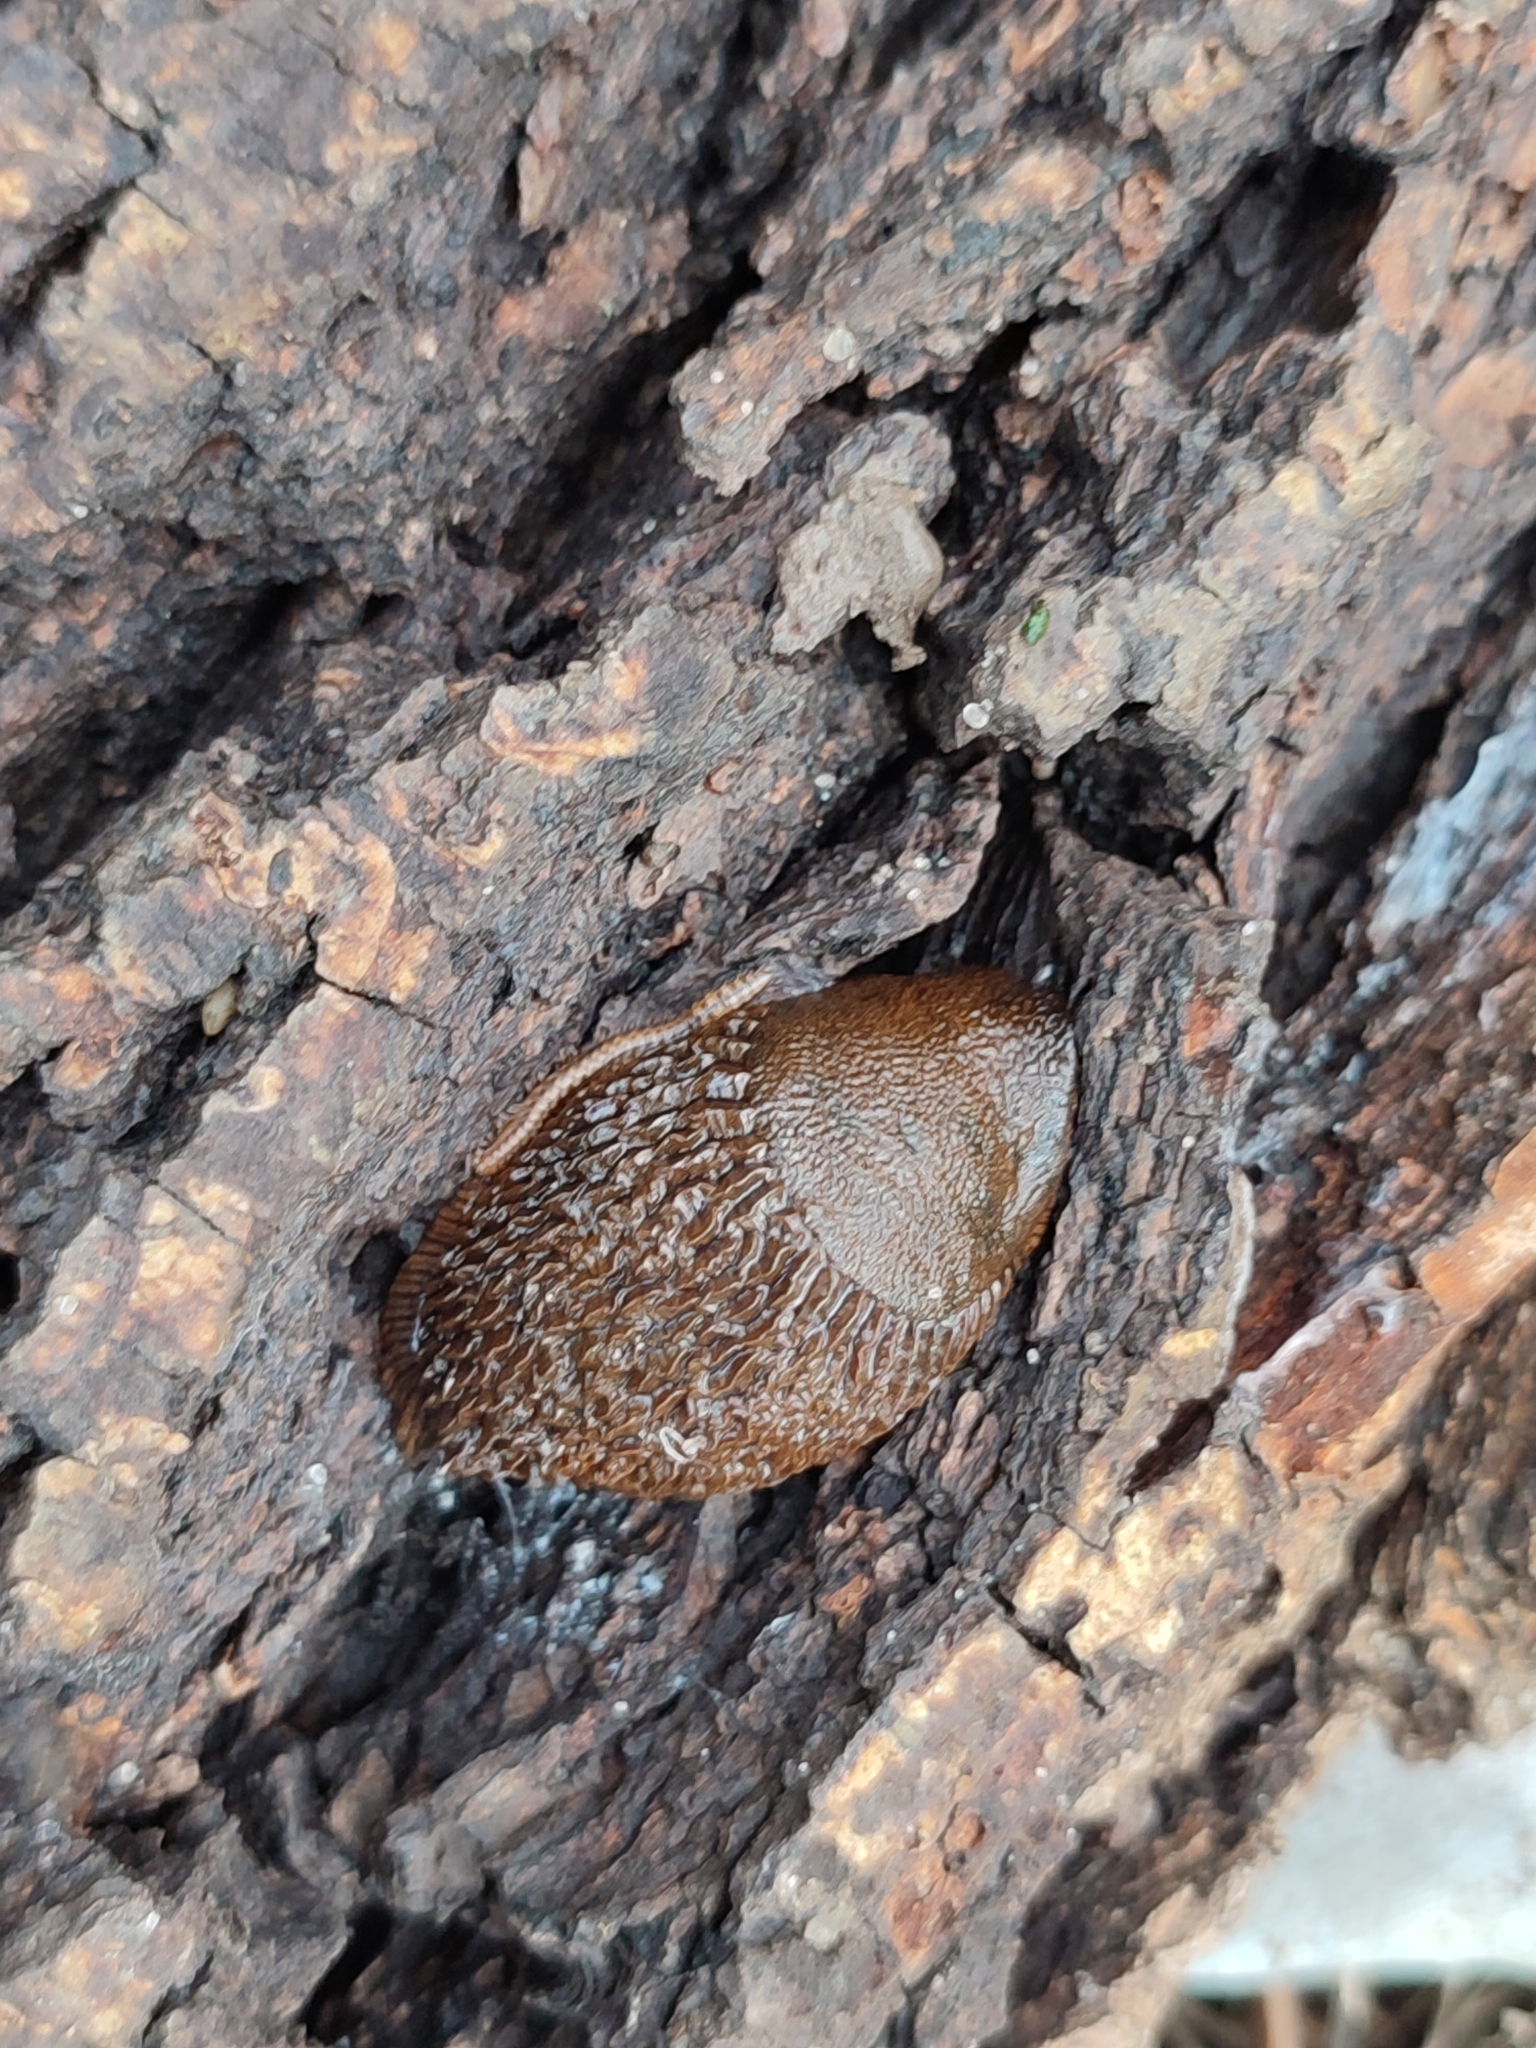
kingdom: Animalia
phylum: Mollusca
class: Gastropoda
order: Stylommatophora
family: Arionidae
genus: Arion
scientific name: Arion vulgaris
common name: Lusitanian slug
